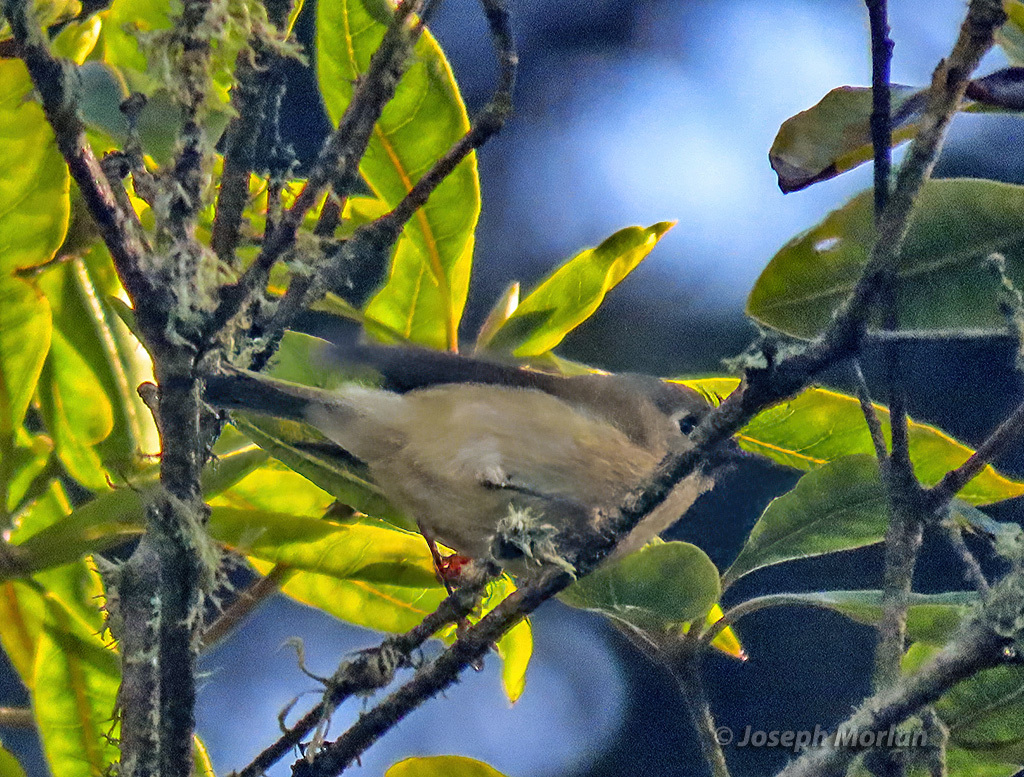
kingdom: Animalia
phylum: Chordata
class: Aves
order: Passeriformes
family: Regulidae
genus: Regulus
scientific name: Regulus calendula
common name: Ruby-crowned kinglet
